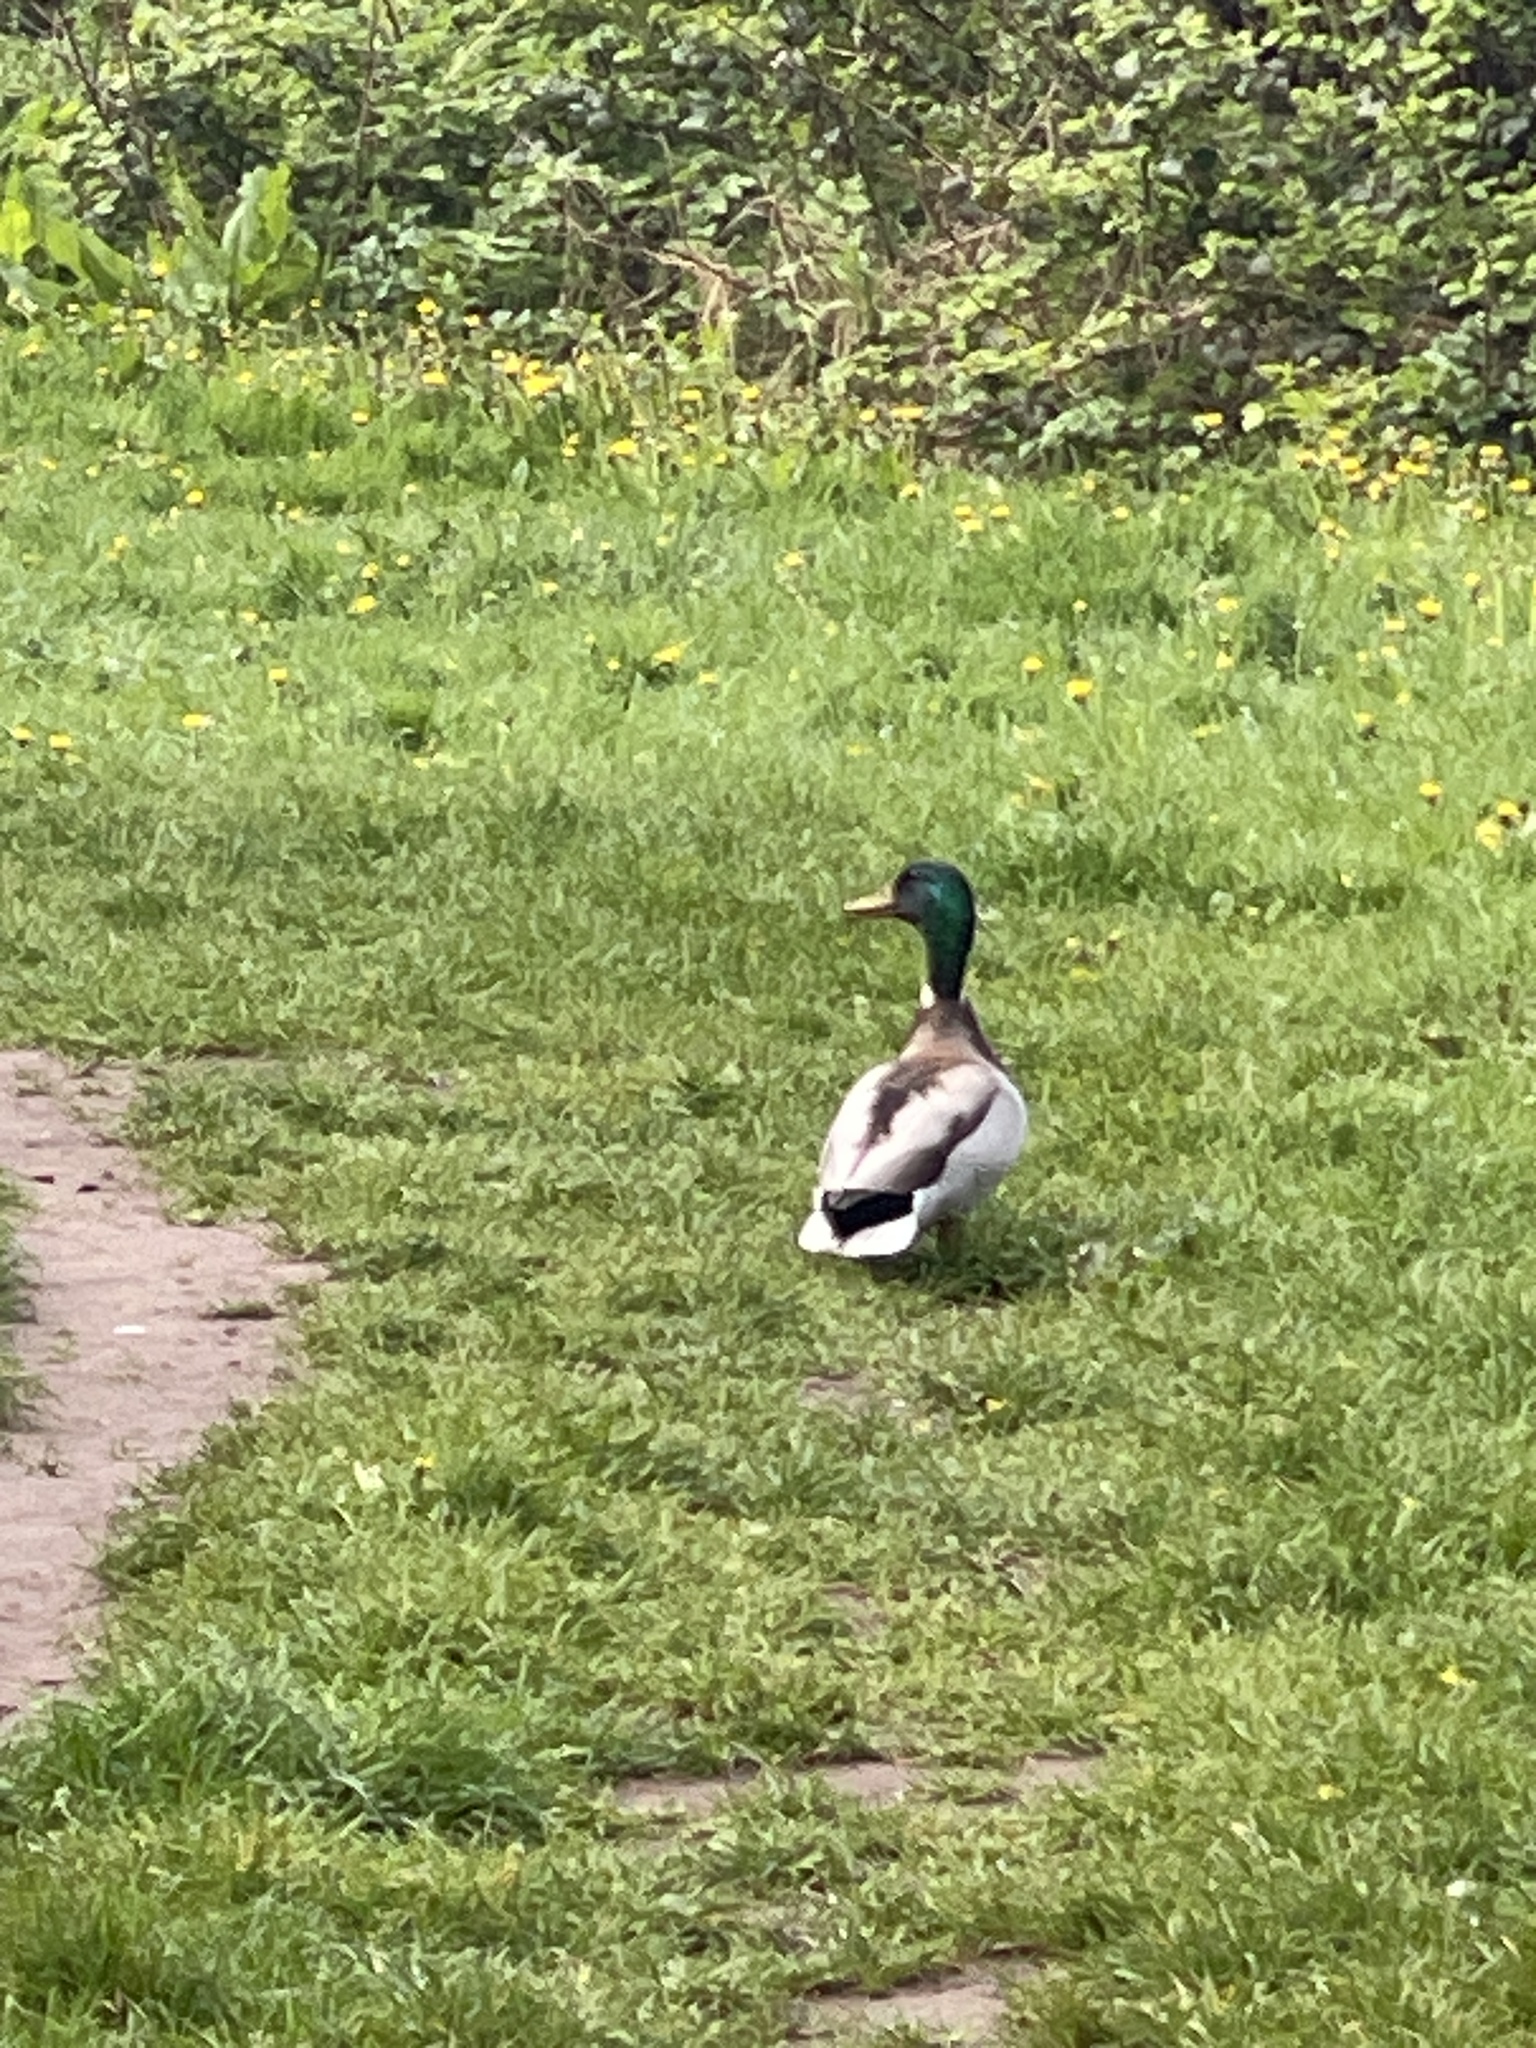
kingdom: Animalia
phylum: Chordata
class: Aves
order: Anseriformes
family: Anatidae
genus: Anas
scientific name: Anas platyrhynchos
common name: Mallard
